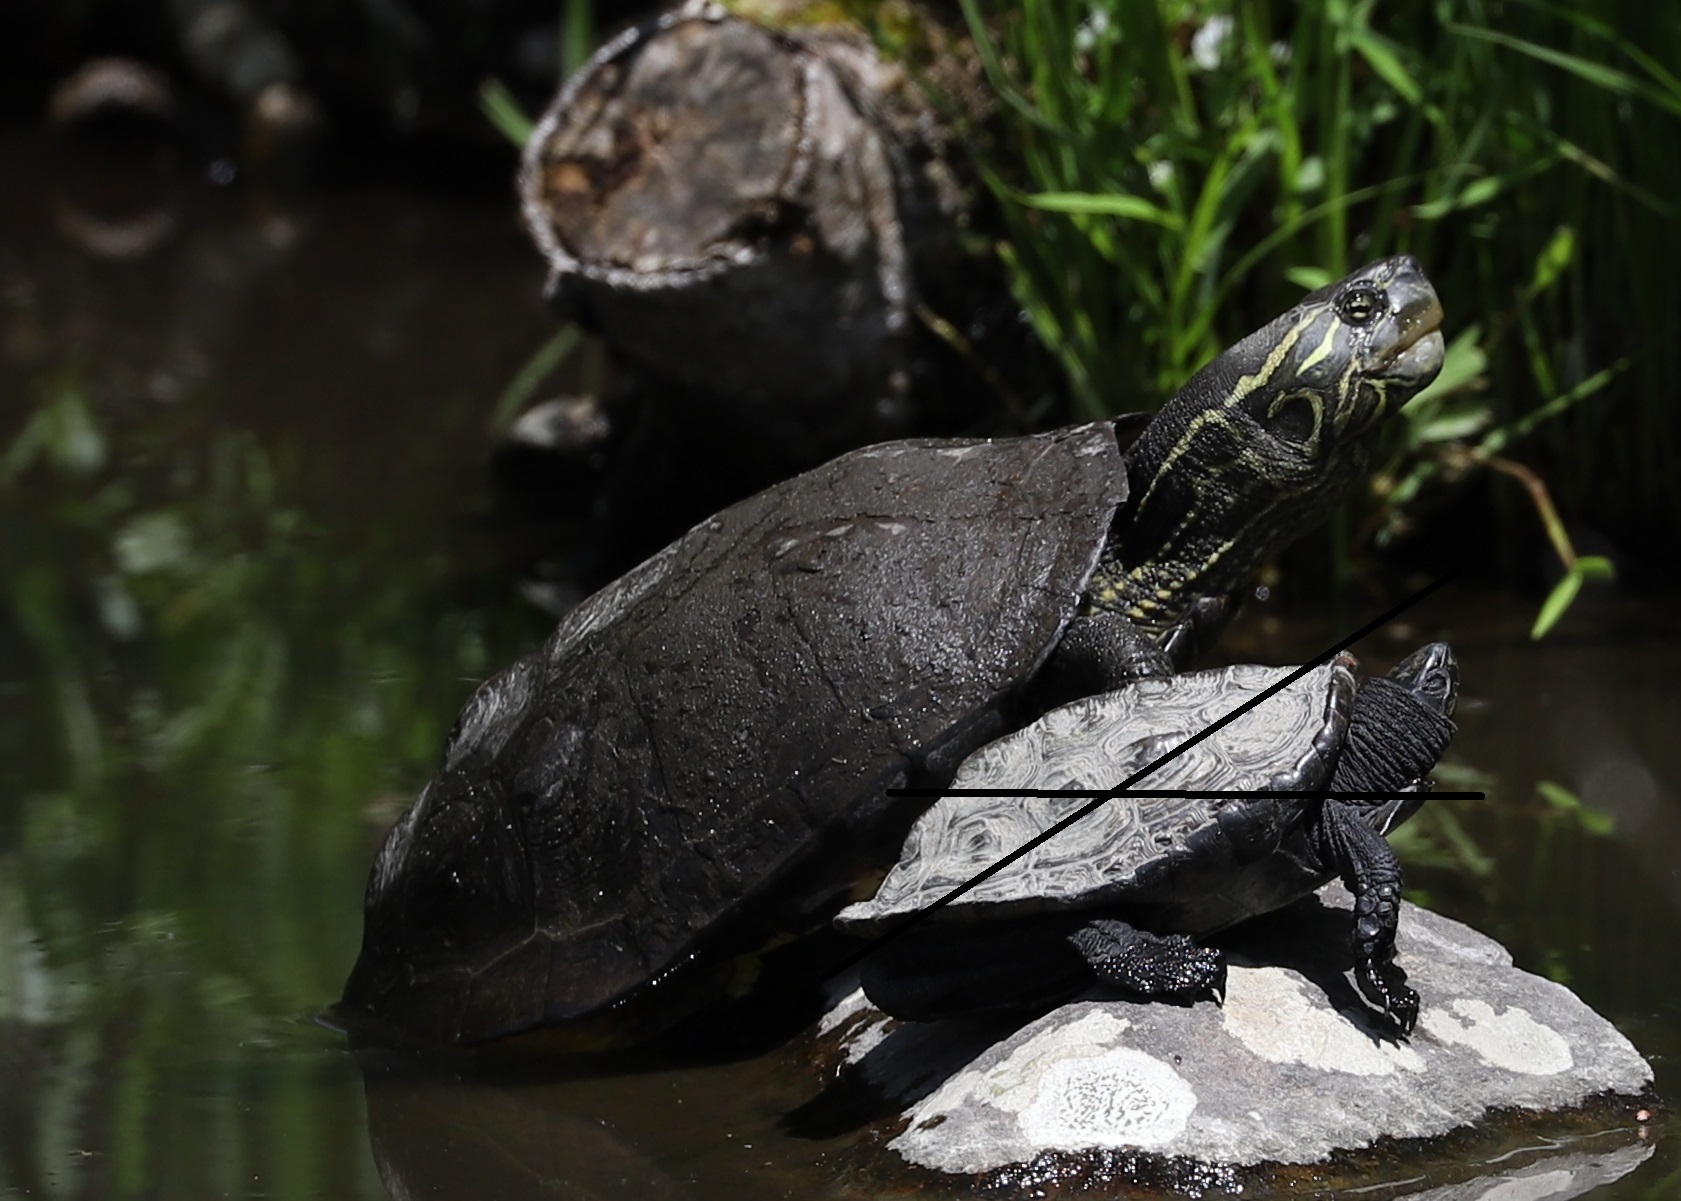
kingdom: Animalia
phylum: Chordata
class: Testudines
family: Geoemydidae
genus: Mauremys
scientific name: Mauremys reevesii
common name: Chinese pond turtle
